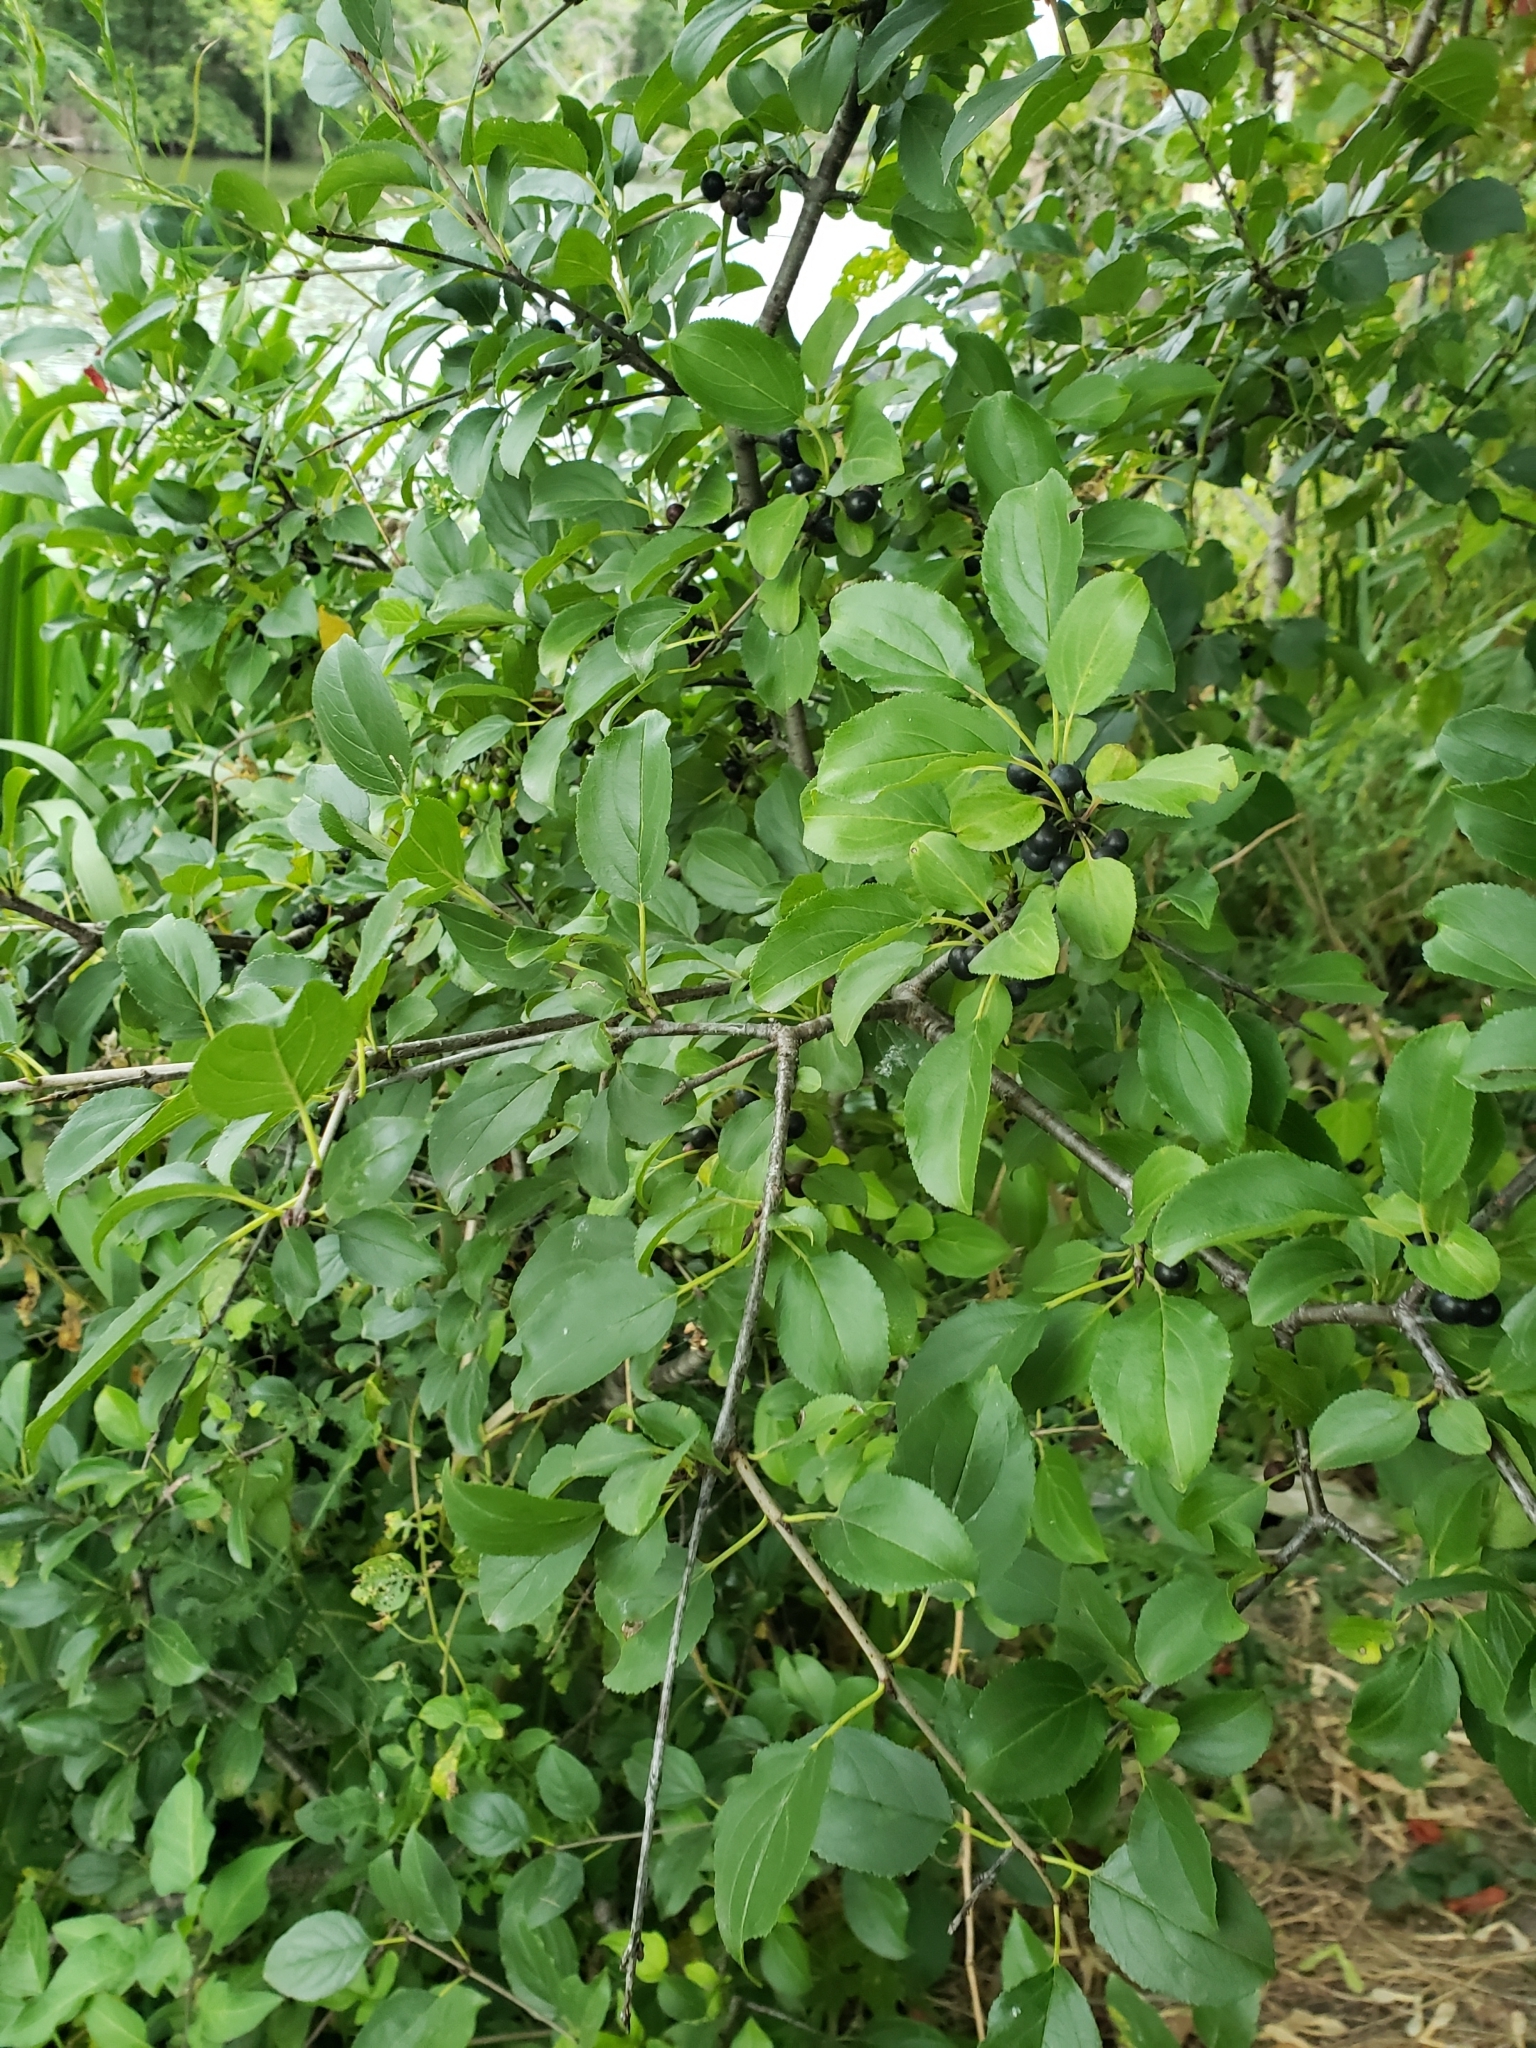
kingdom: Plantae
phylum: Tracheophyta
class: Magnoliopsida
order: Rosales
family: Rhamnaceae
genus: Rhamnus
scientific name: Rhamnus cathartica
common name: Common buckthorn
